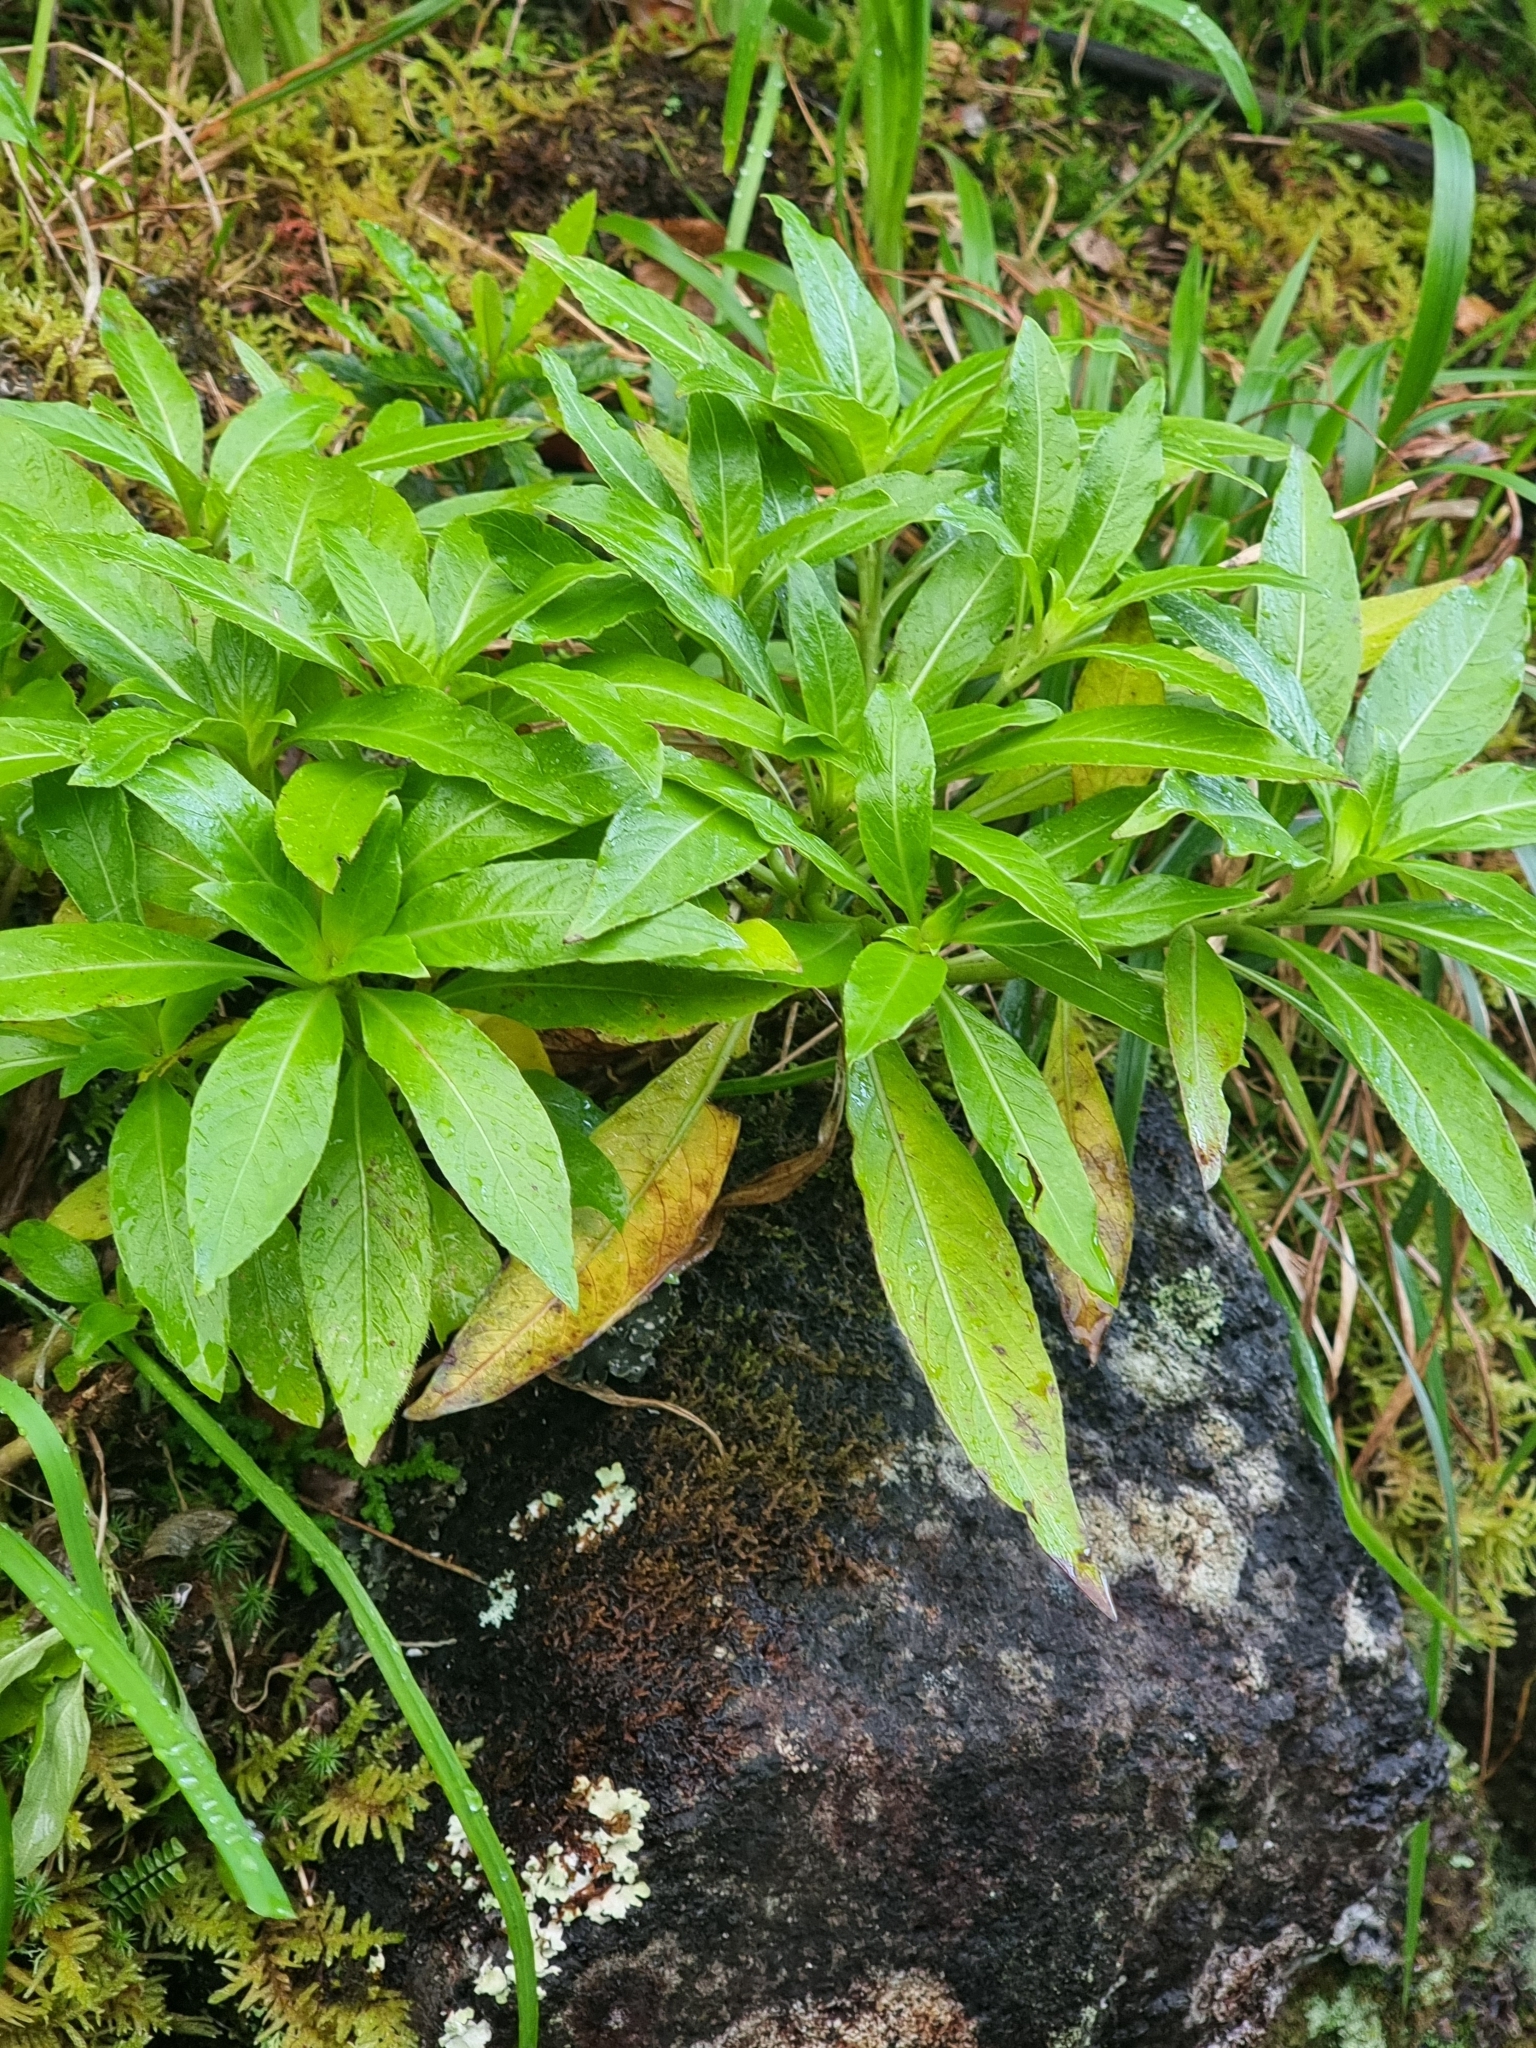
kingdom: Plantae
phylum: Tracheophyta
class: Magnoliopsida
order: Gentianales
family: Rubiaceae
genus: Phyllis
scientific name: Phyllis nobla
